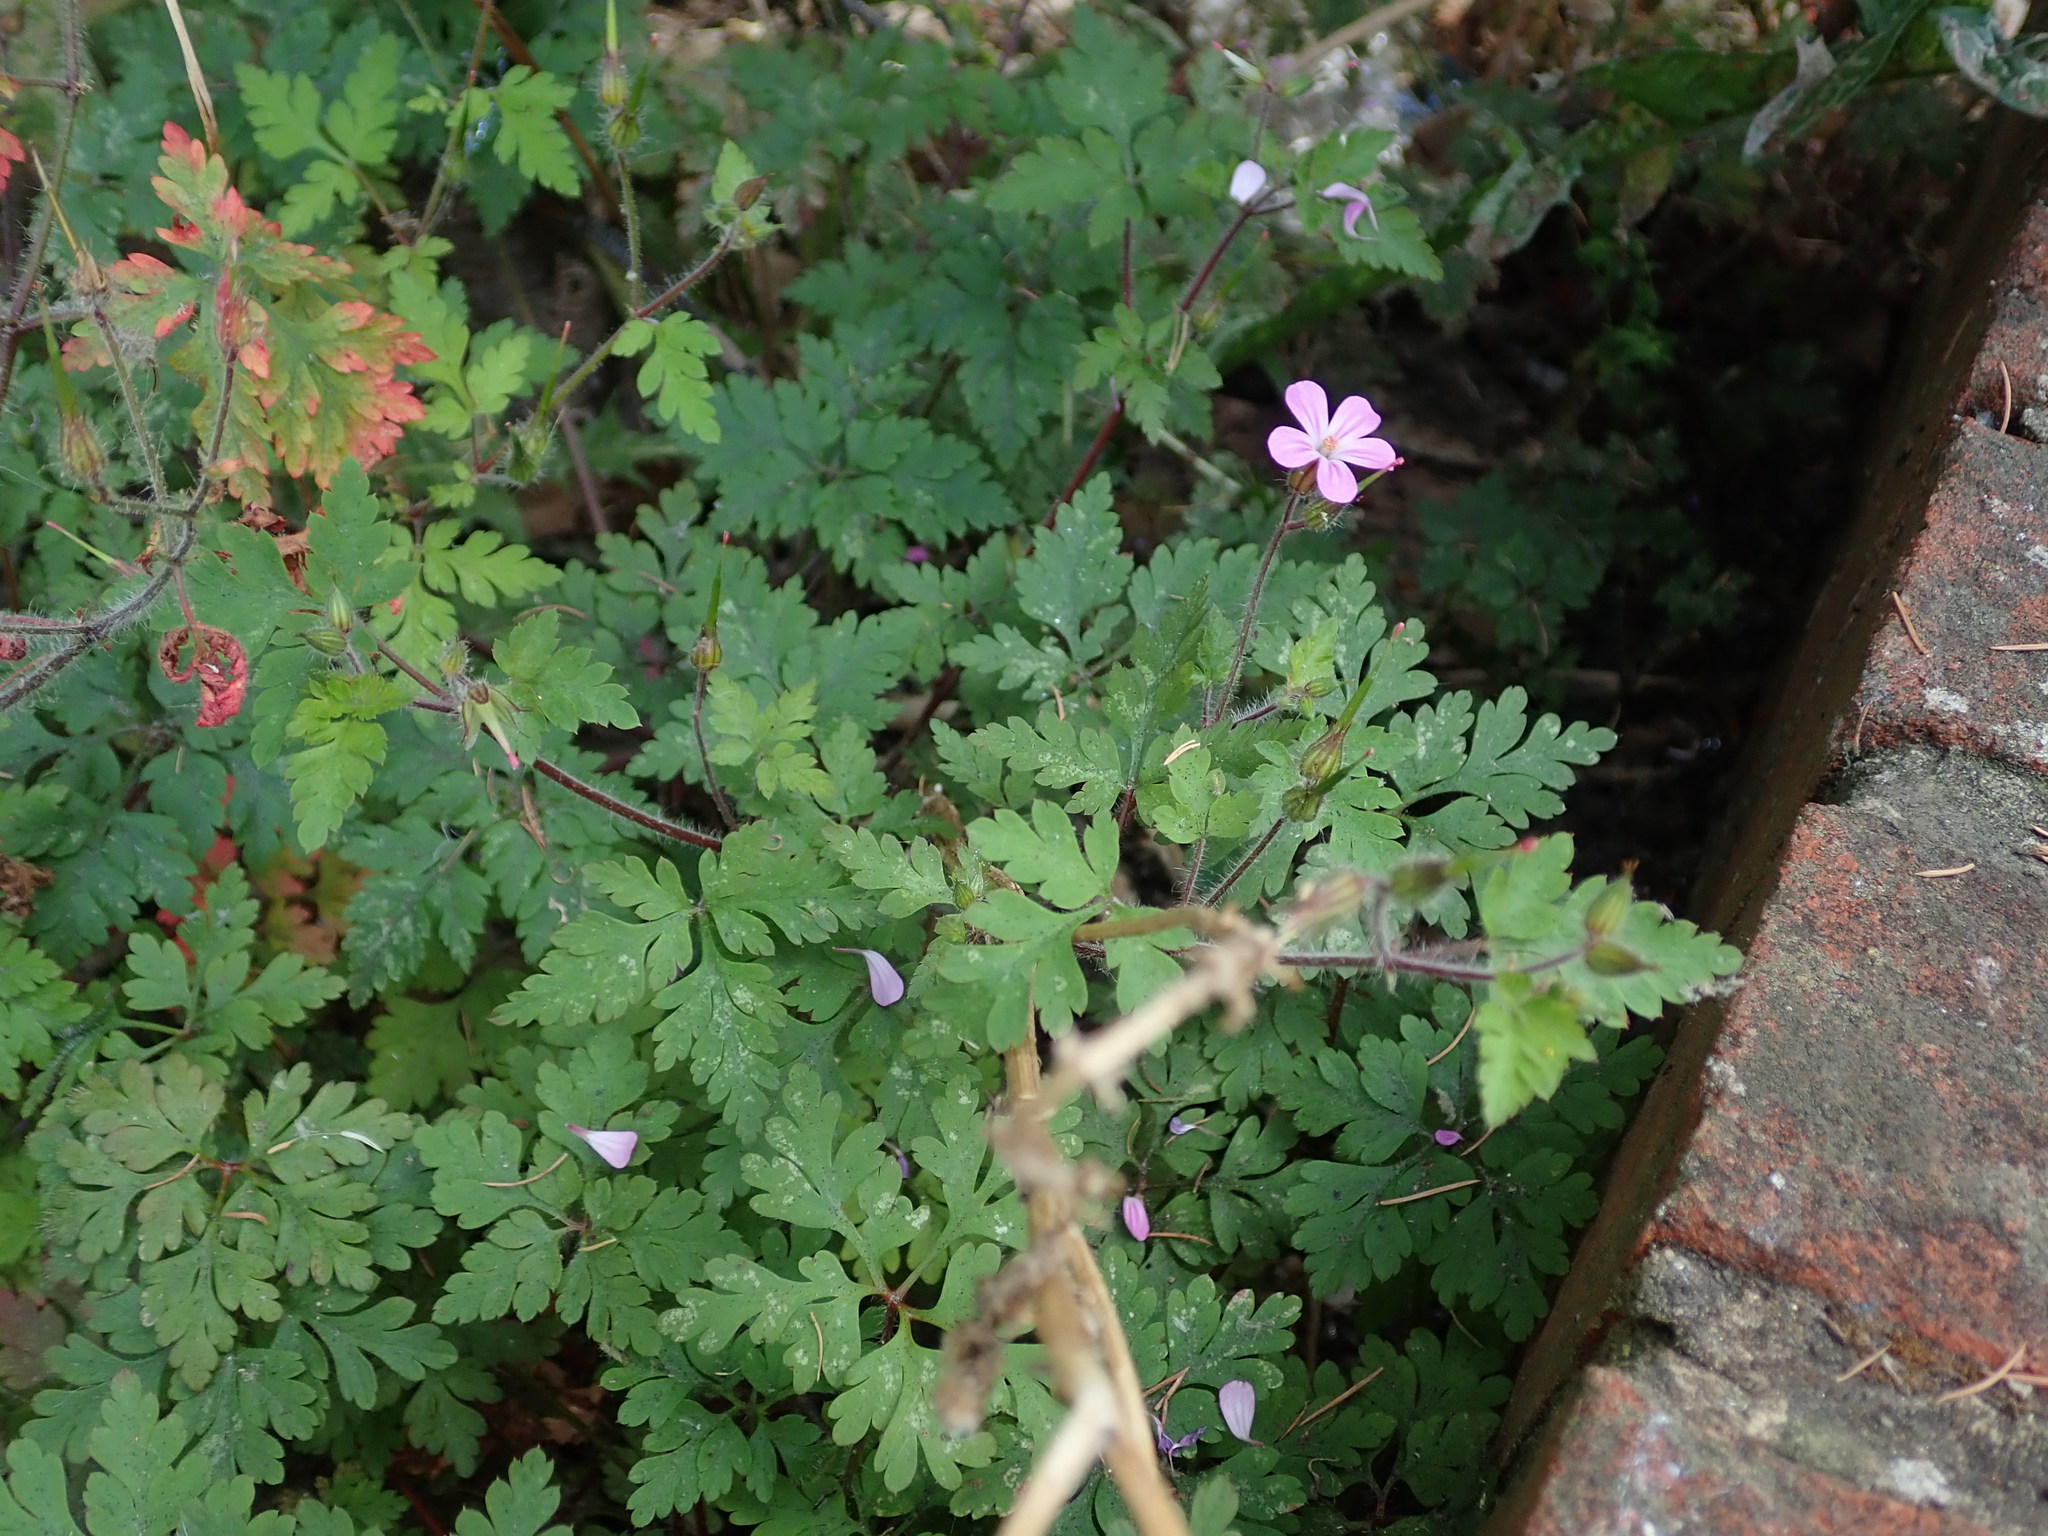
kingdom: Plantae
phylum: Tracheophyta
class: Magnoliopsida
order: Geraniales
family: Geraniaceae
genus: Geranium
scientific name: Geranium robertianum
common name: Herb-robert
